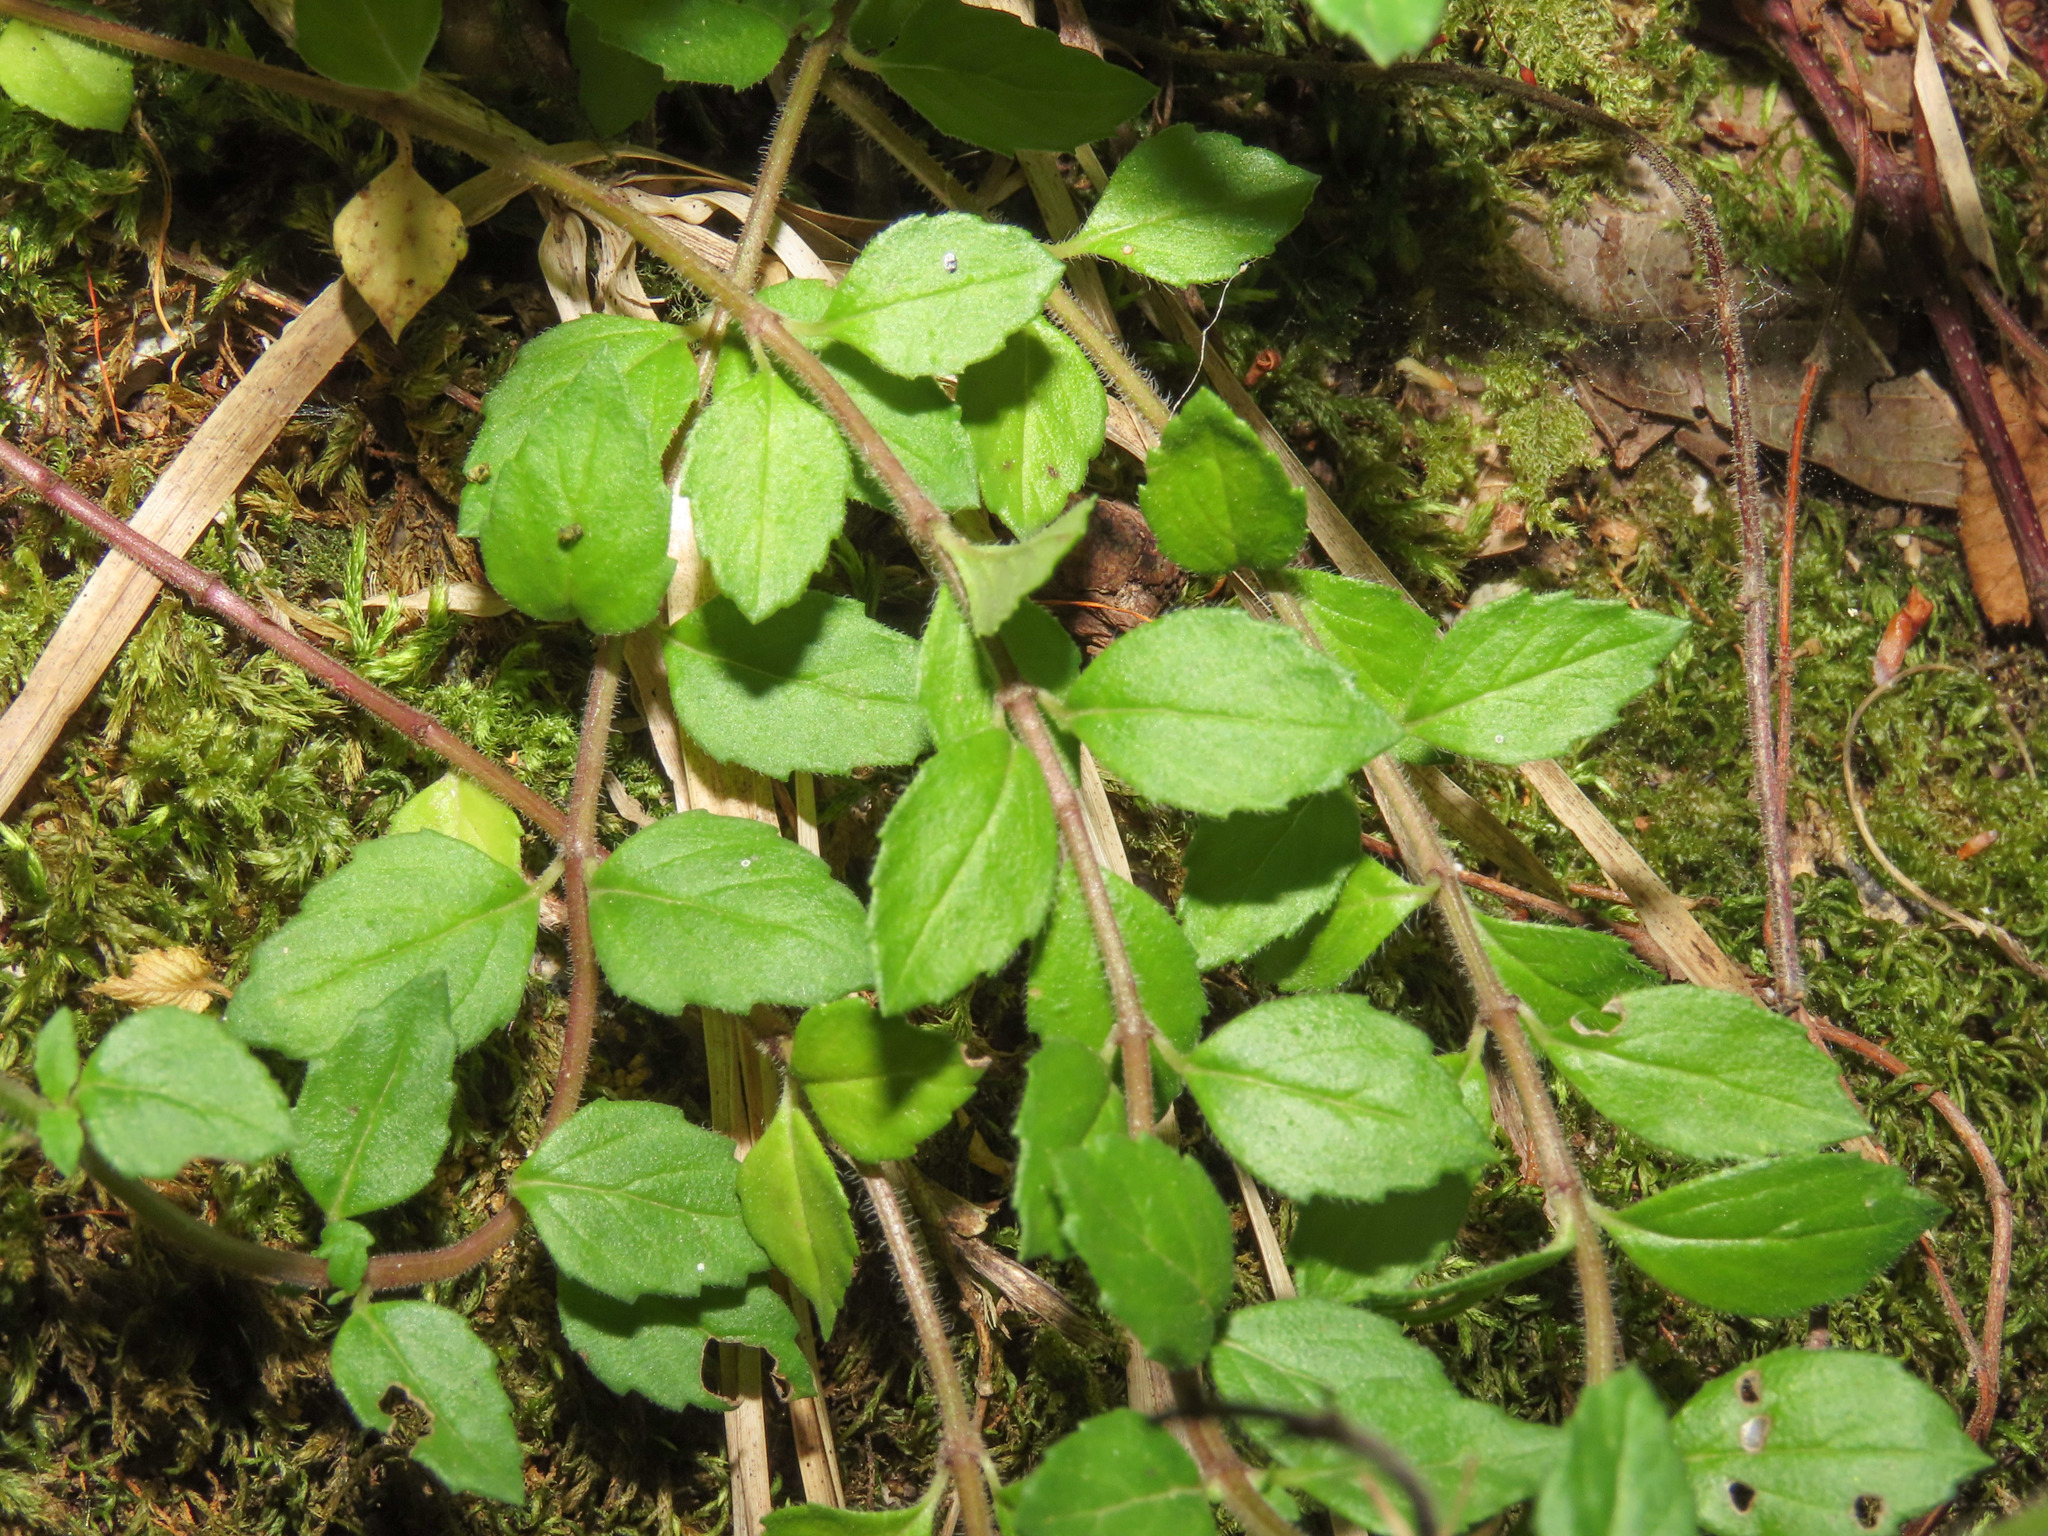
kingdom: Plantae
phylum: Tracheophyta
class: Magnoliopsida
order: Lamiales
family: Lamiaceae
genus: Clinopodium
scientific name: Clinopodium alpinum
